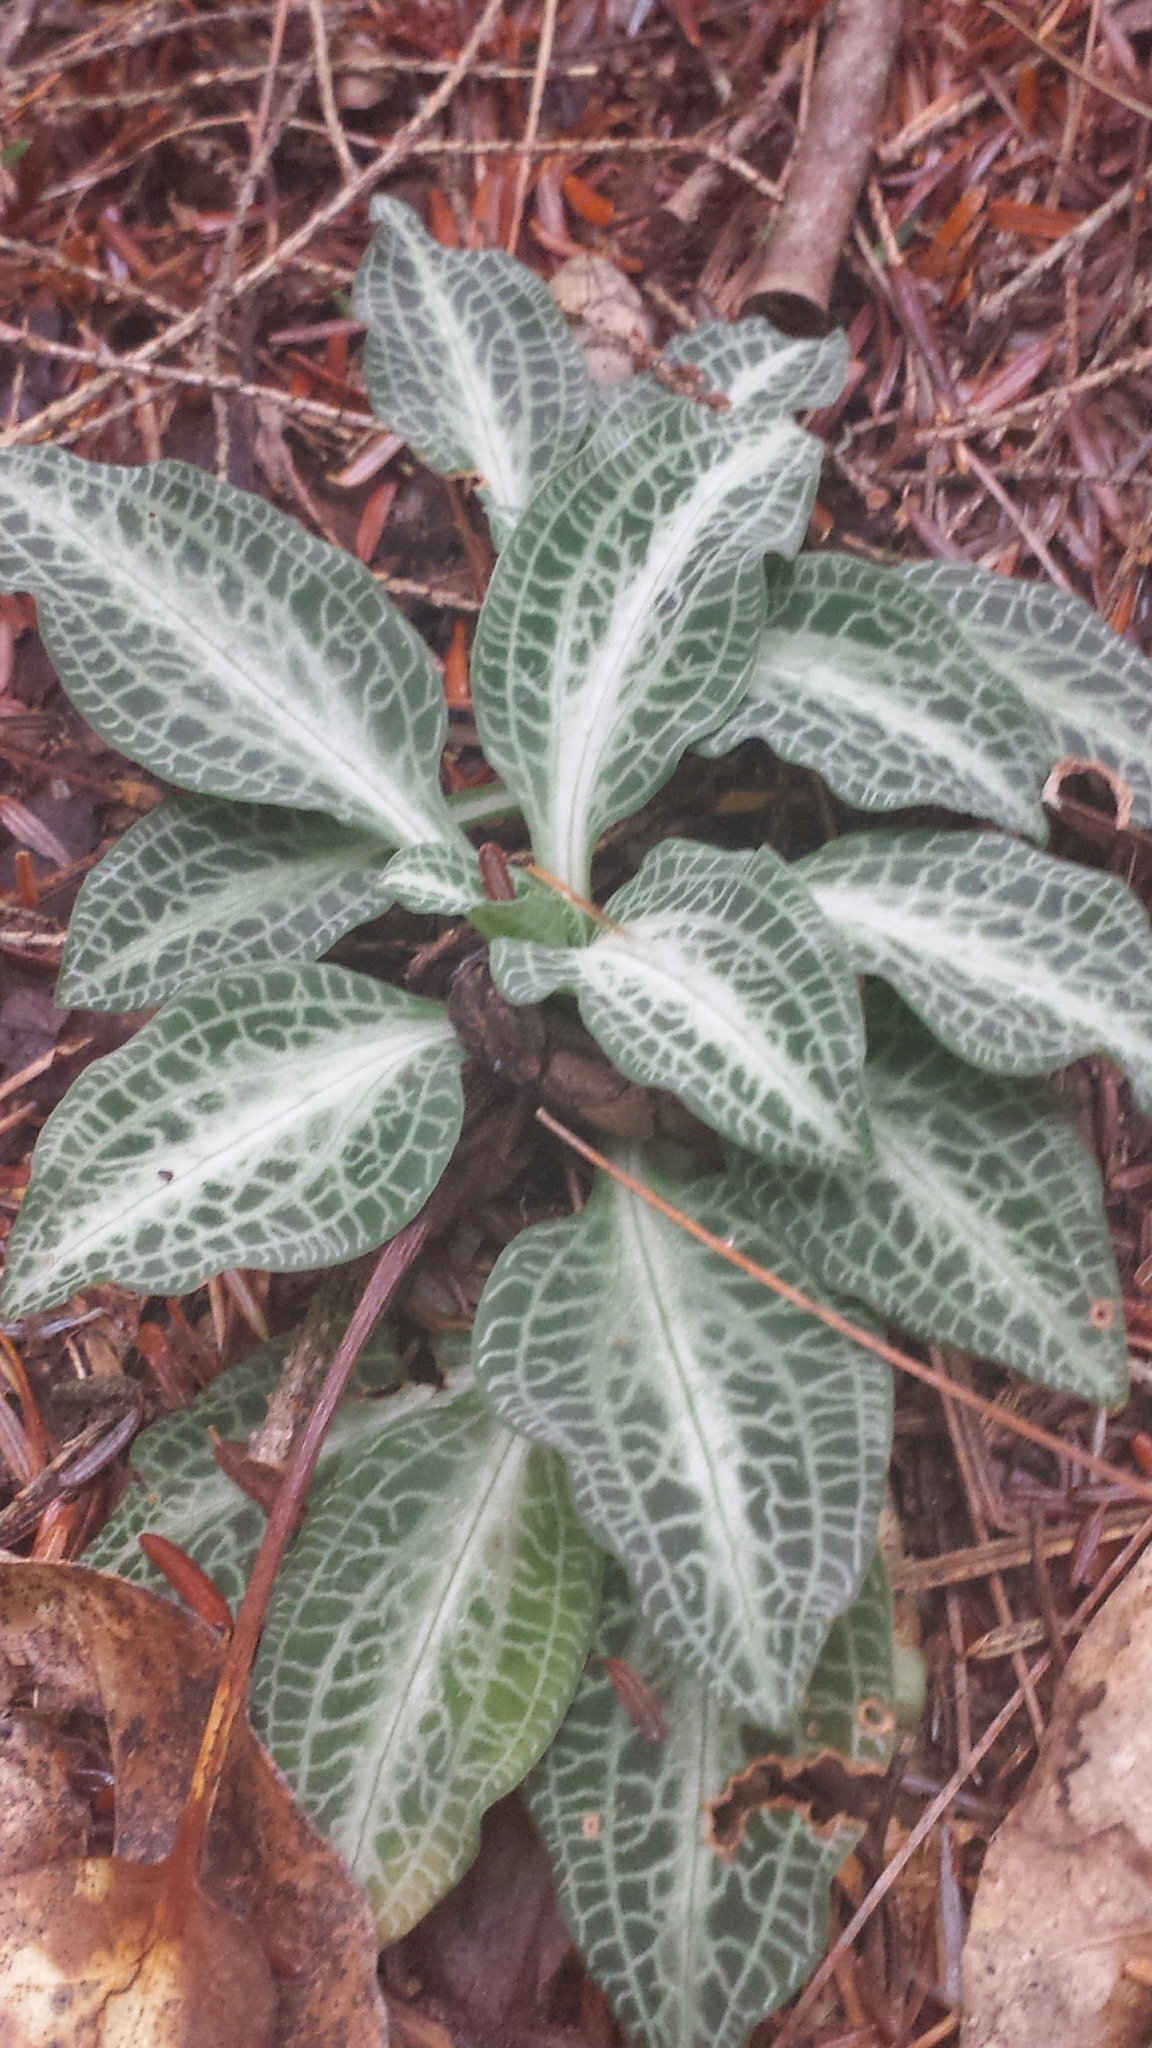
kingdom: Plantae
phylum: Tracheophyta
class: Liliopsida
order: Asparagales
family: Orchidaceae
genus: Goodyera
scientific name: Goodyera pubescens
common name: Downy rattlesnake-plantain
